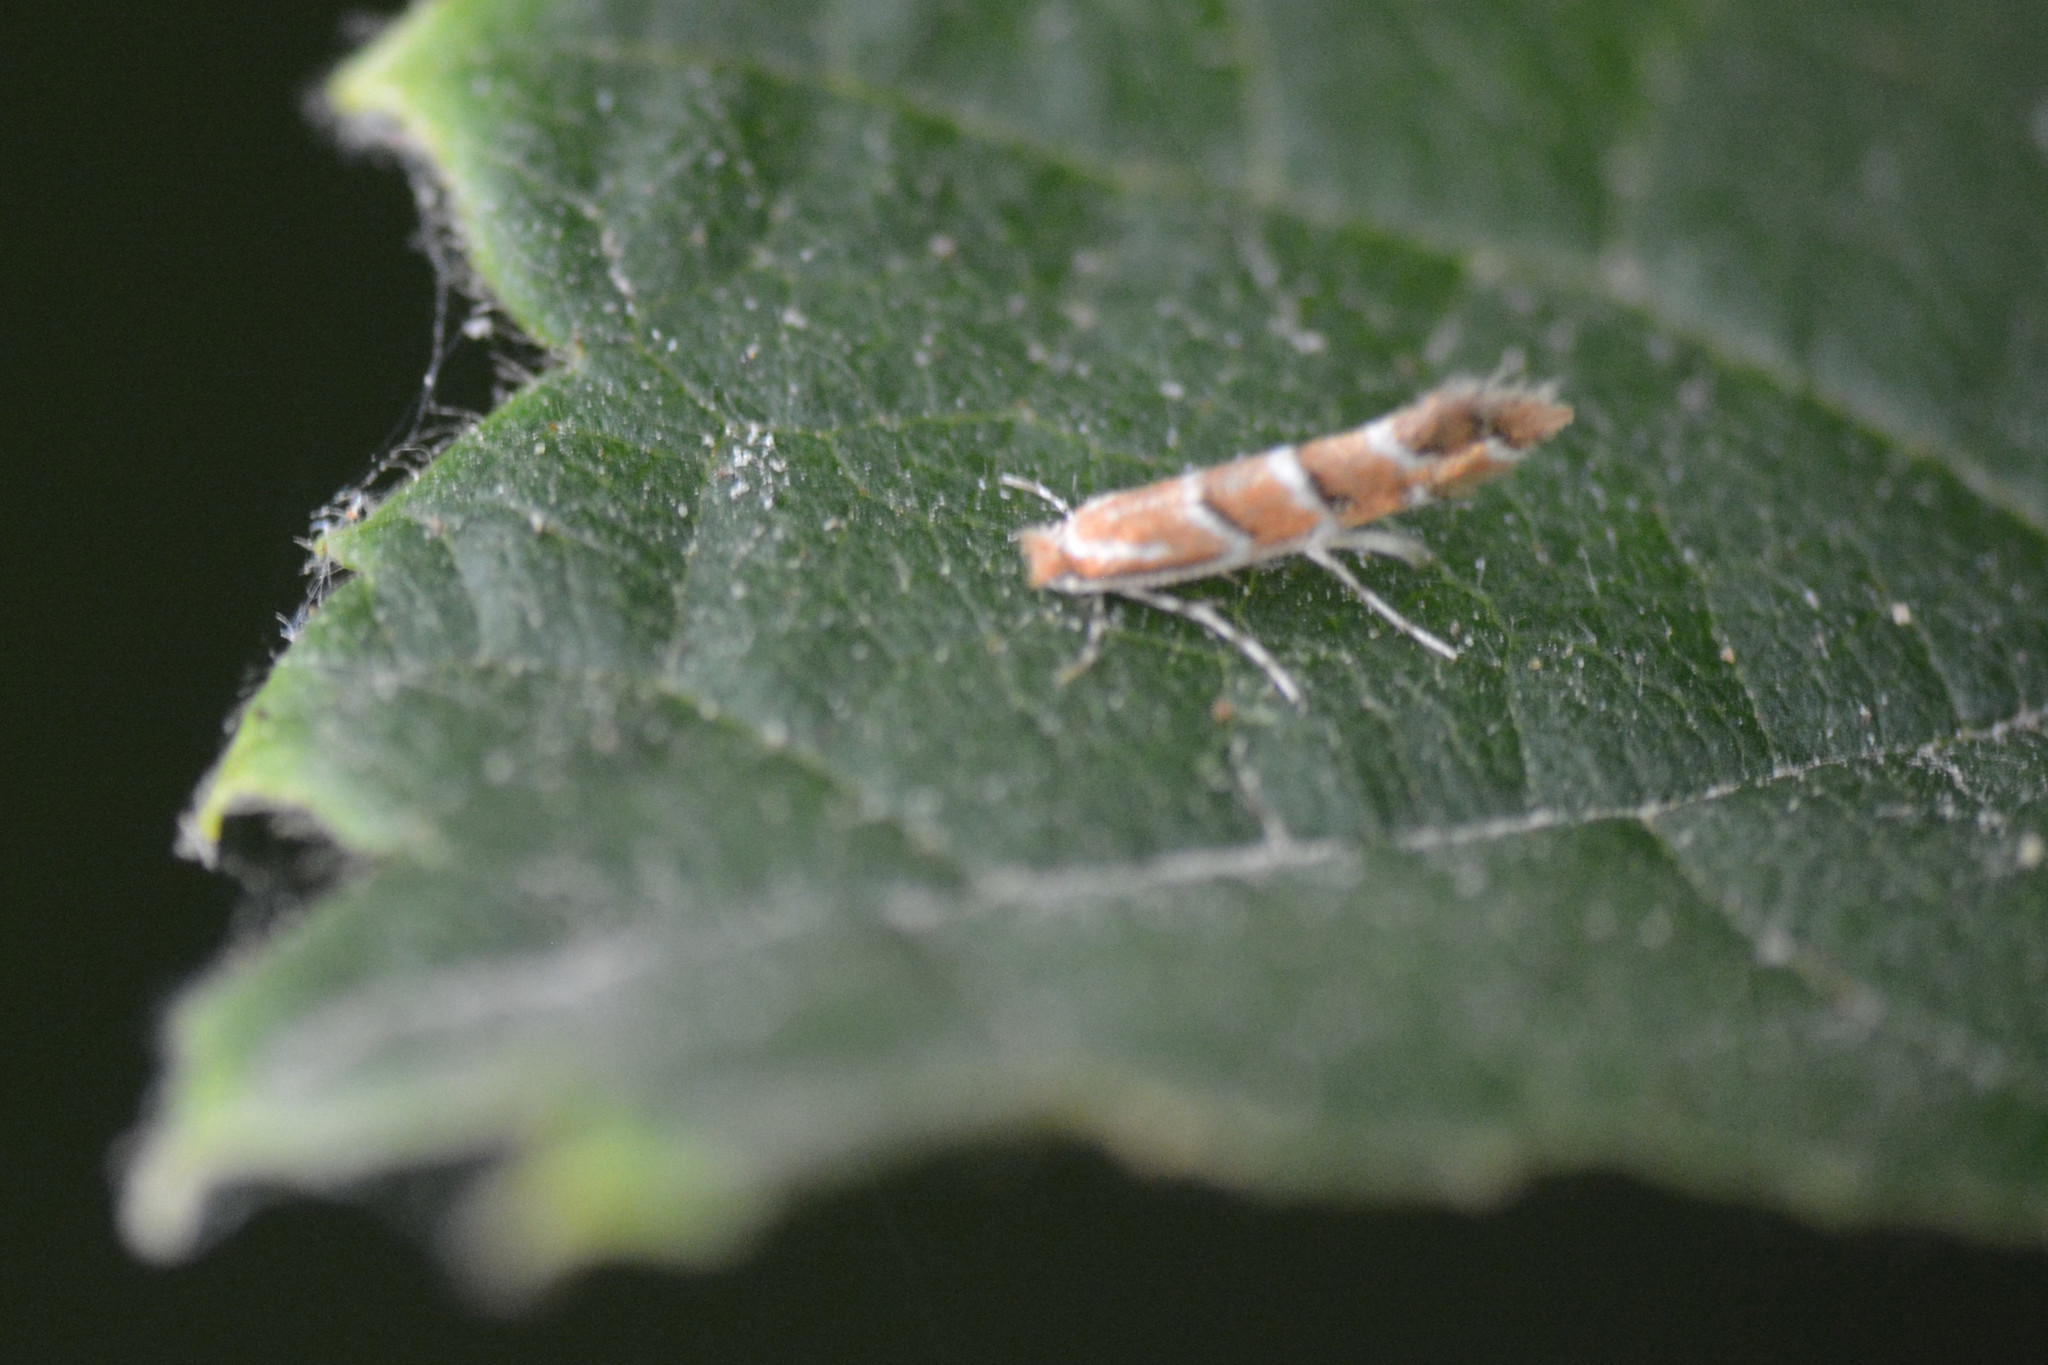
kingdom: Animalia
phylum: Arthropoda
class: Insecta
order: Lepidoptera
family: Gracillariidae
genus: Cameraria
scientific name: Cameraria ohridella
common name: Horse-chestnut leaf-miner
